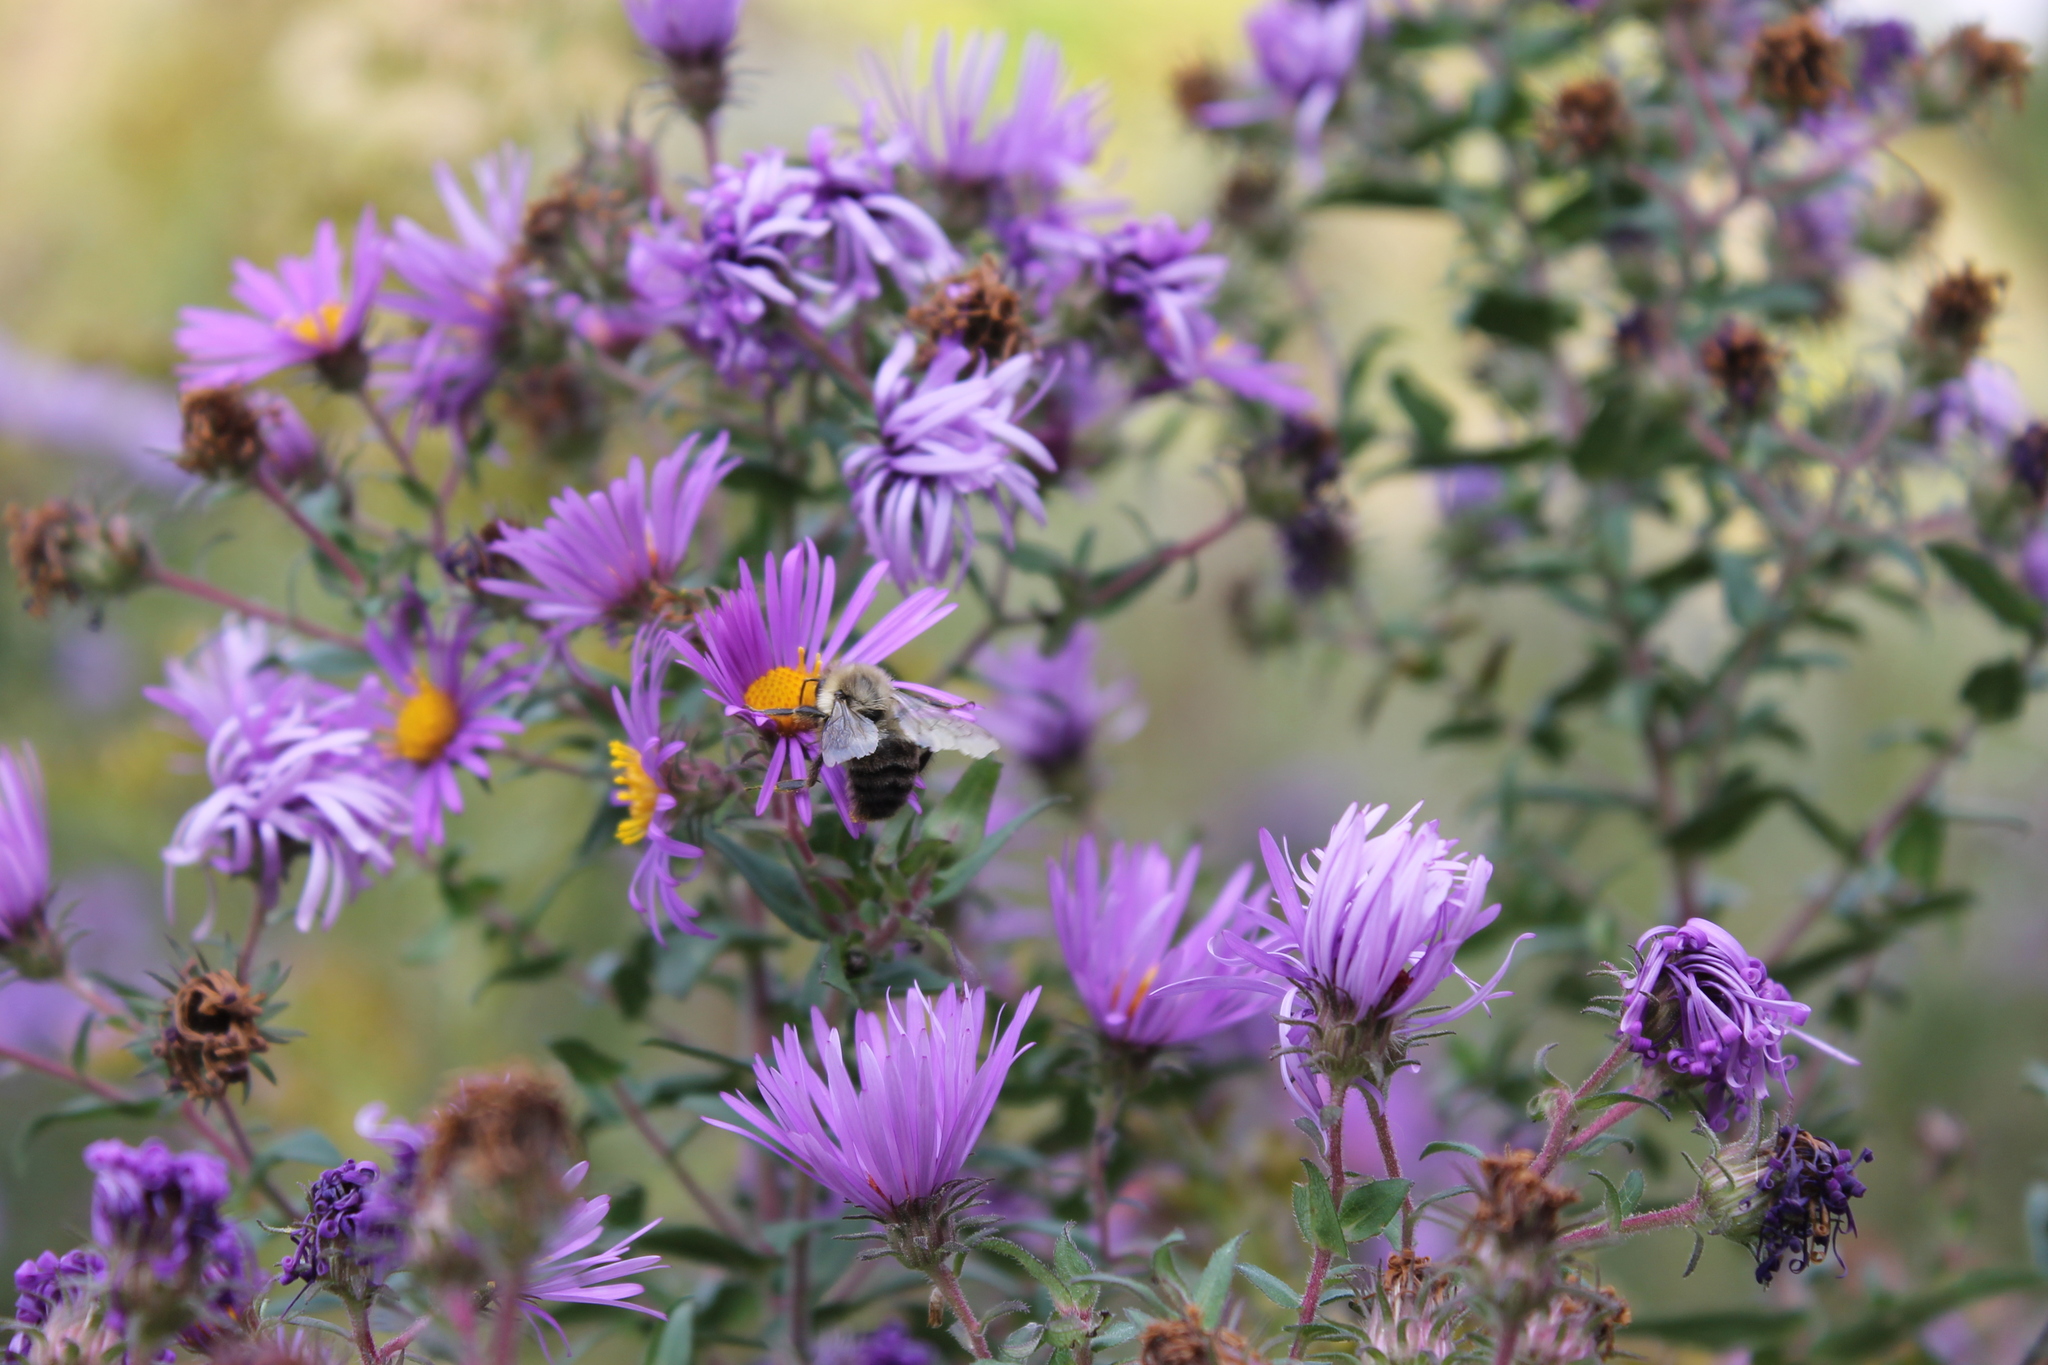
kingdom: Animalia
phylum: Arthropoda
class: Insecta
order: Hymenoptera
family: Apidae
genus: Bombus
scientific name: Bombus impatiens
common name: Common eastern bumble bee
